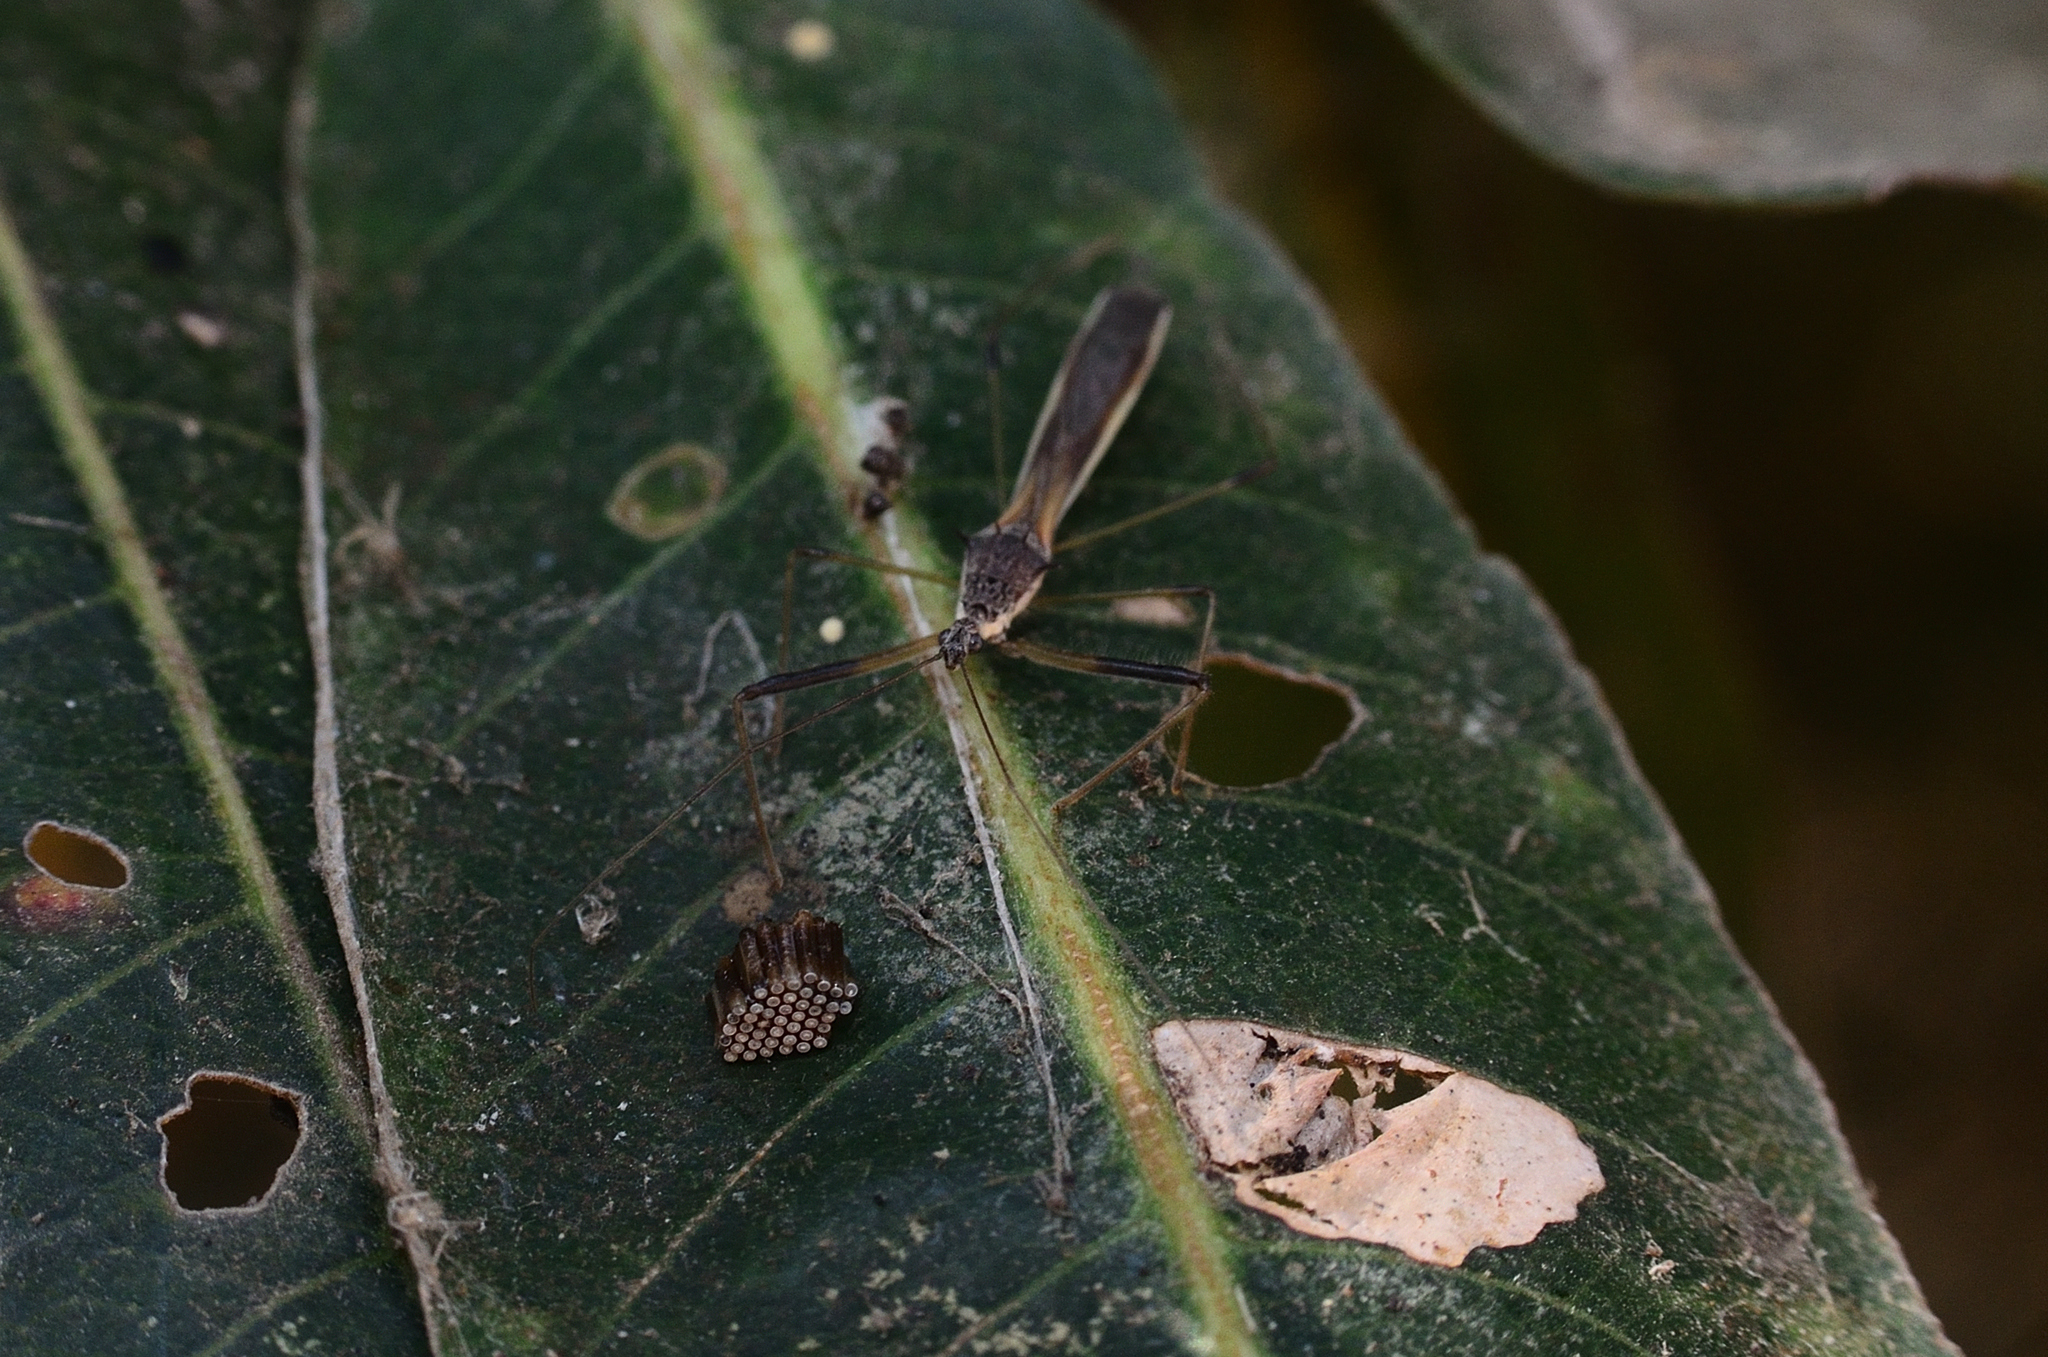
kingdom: Animalia
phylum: Arthropoda
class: Insecta
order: Hemiptera
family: Reduviidae
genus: Alcmena
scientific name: Alcmena spinifex
